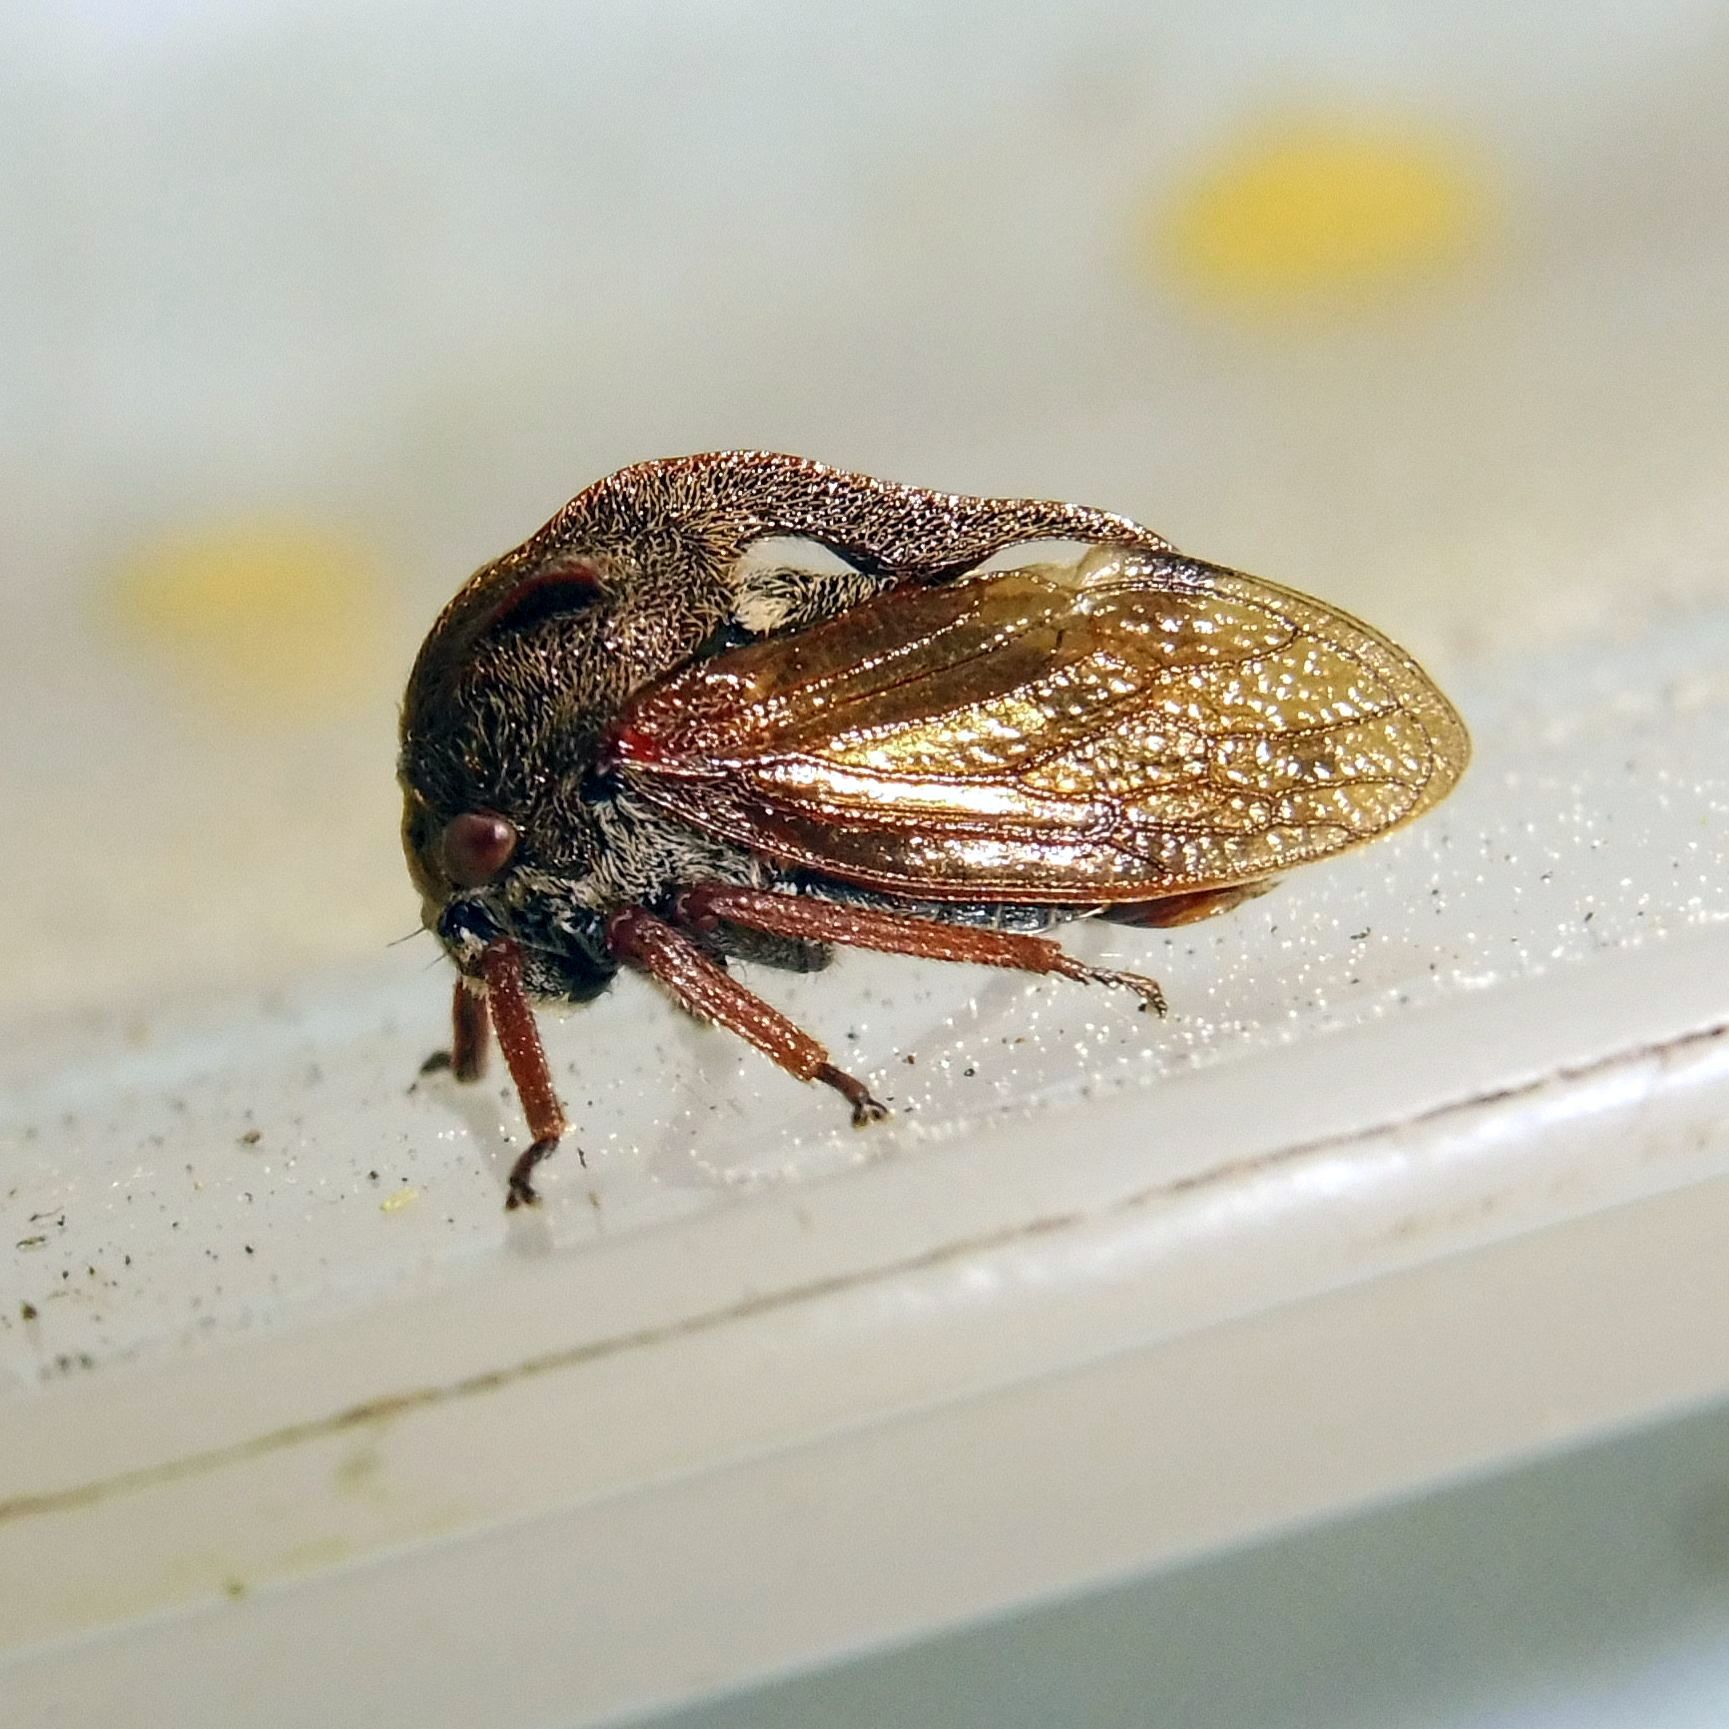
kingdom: Animalia
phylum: Arthropoda
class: Insecta
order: Hemiptera
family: Membracidae
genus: Centrotus
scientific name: Centrotus cornuta
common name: Treehopper
